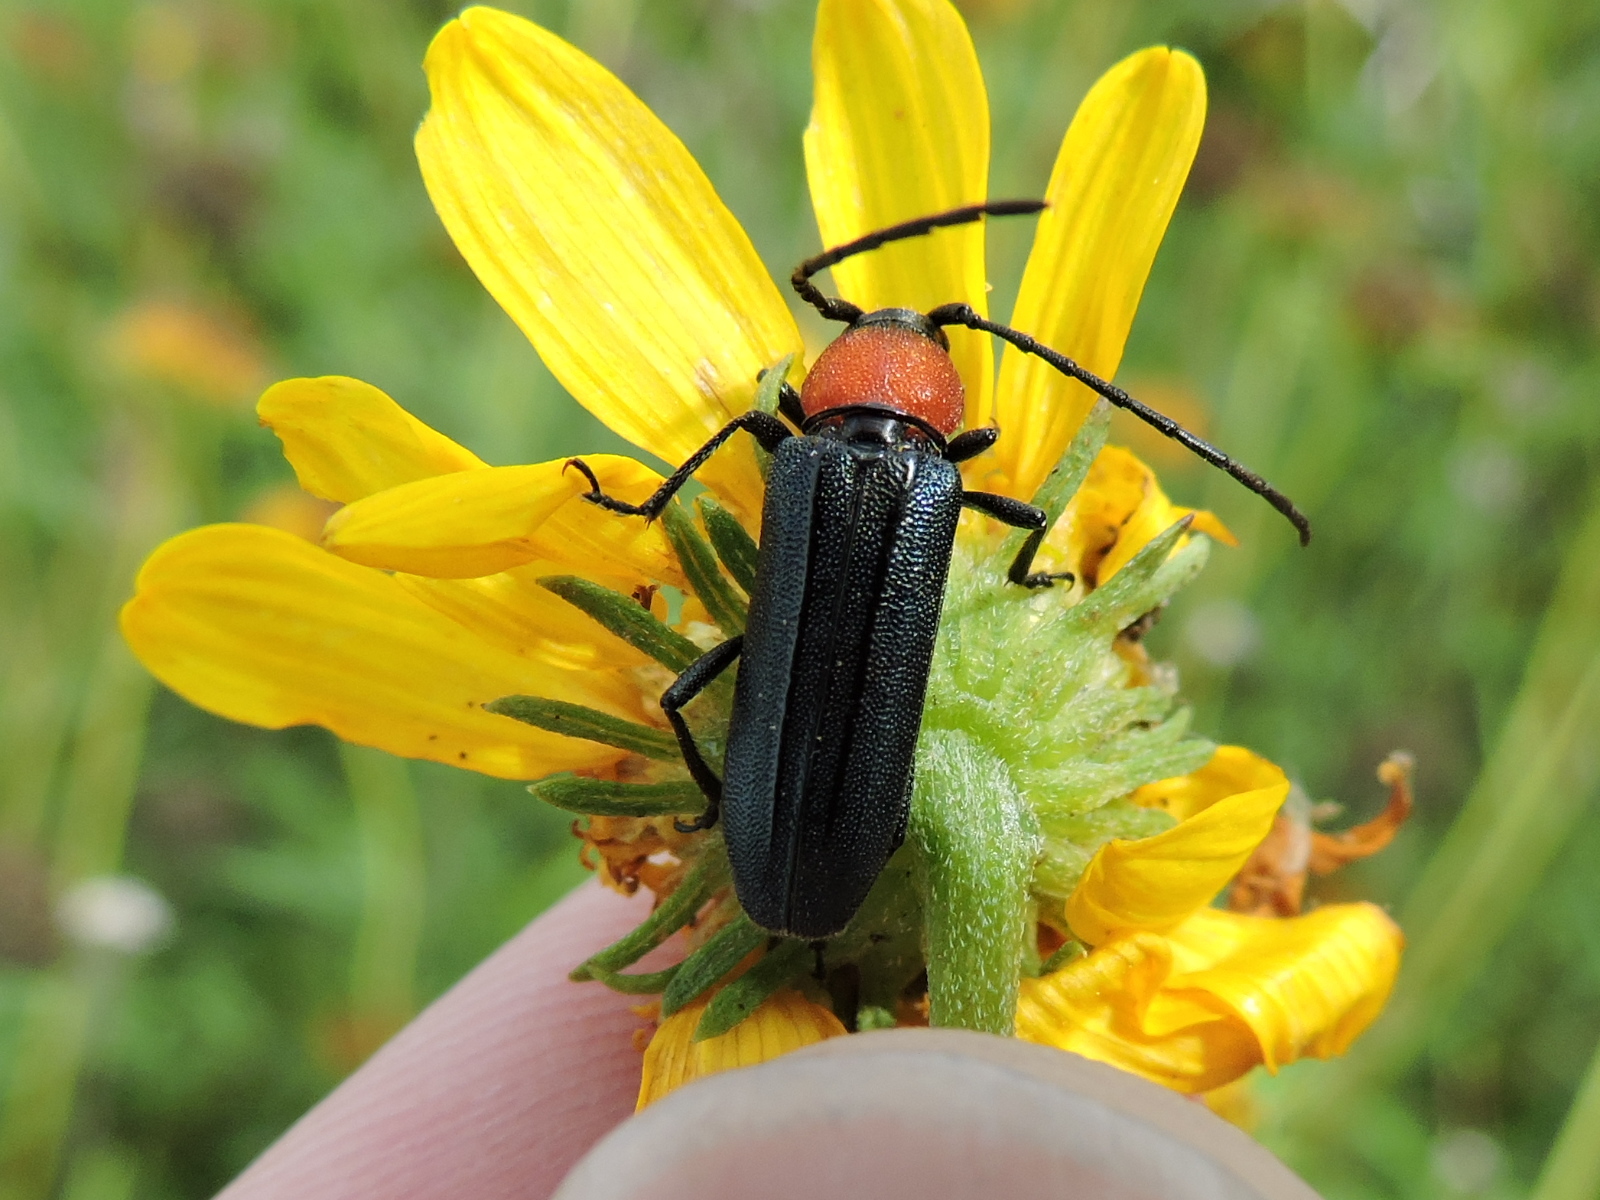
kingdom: Animalia
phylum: Arthropoda
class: Insecta
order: Coleoptera
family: Cerambycidae
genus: Mannophorus
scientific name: Mannophorus laetus
